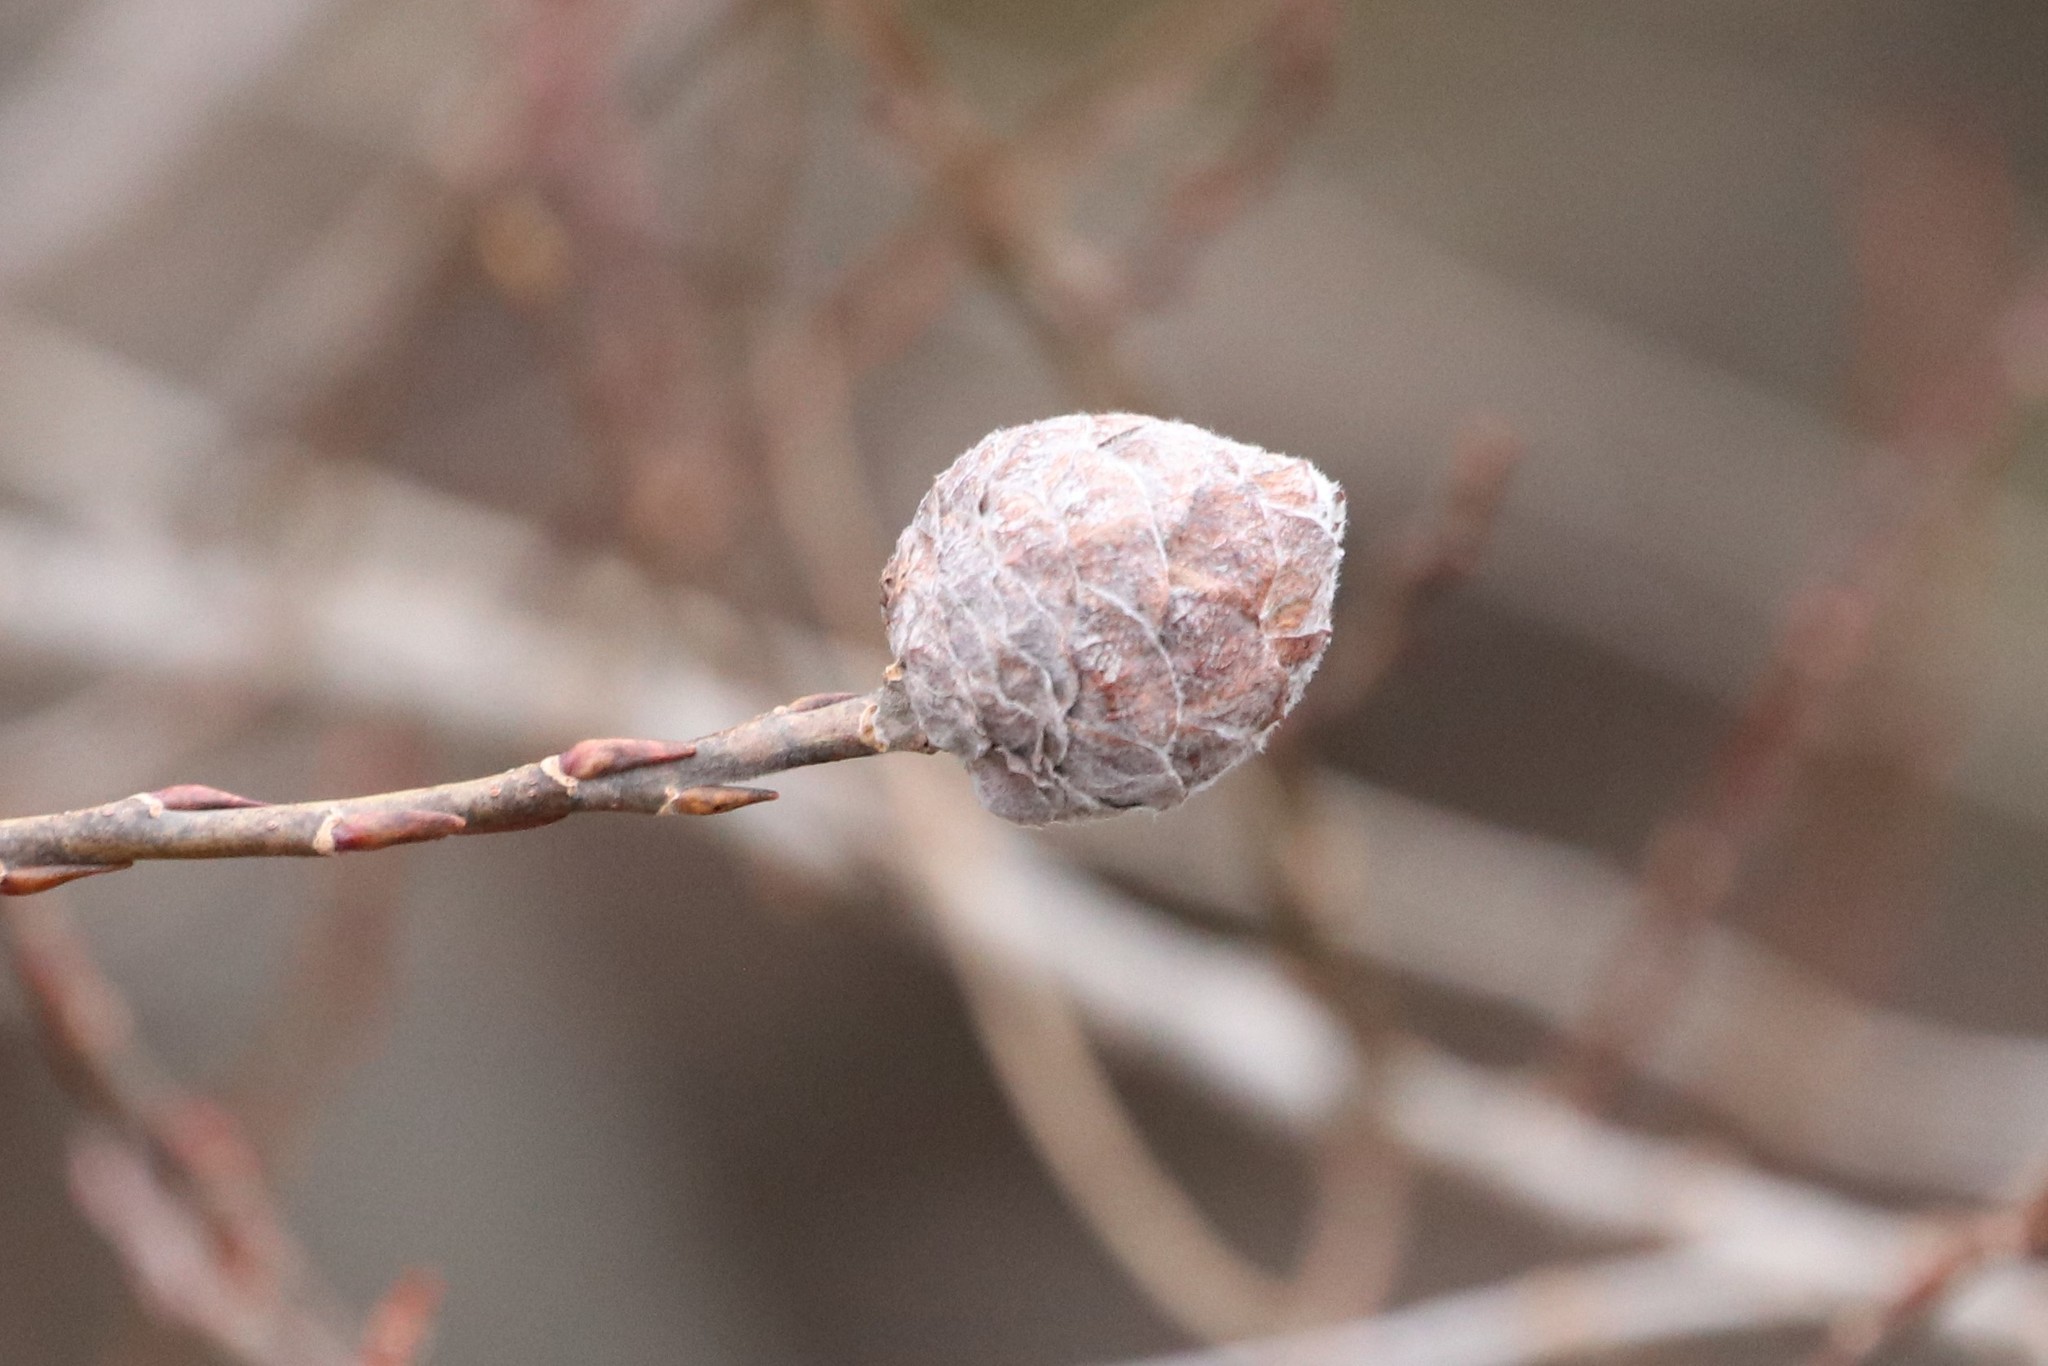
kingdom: Animalia
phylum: Arthropoda
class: Insecta
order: Diptera
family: Cecidomyiidae
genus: Rabdophaga
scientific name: Rabdophaga strobiloides
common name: Willow pinecone gall midge
